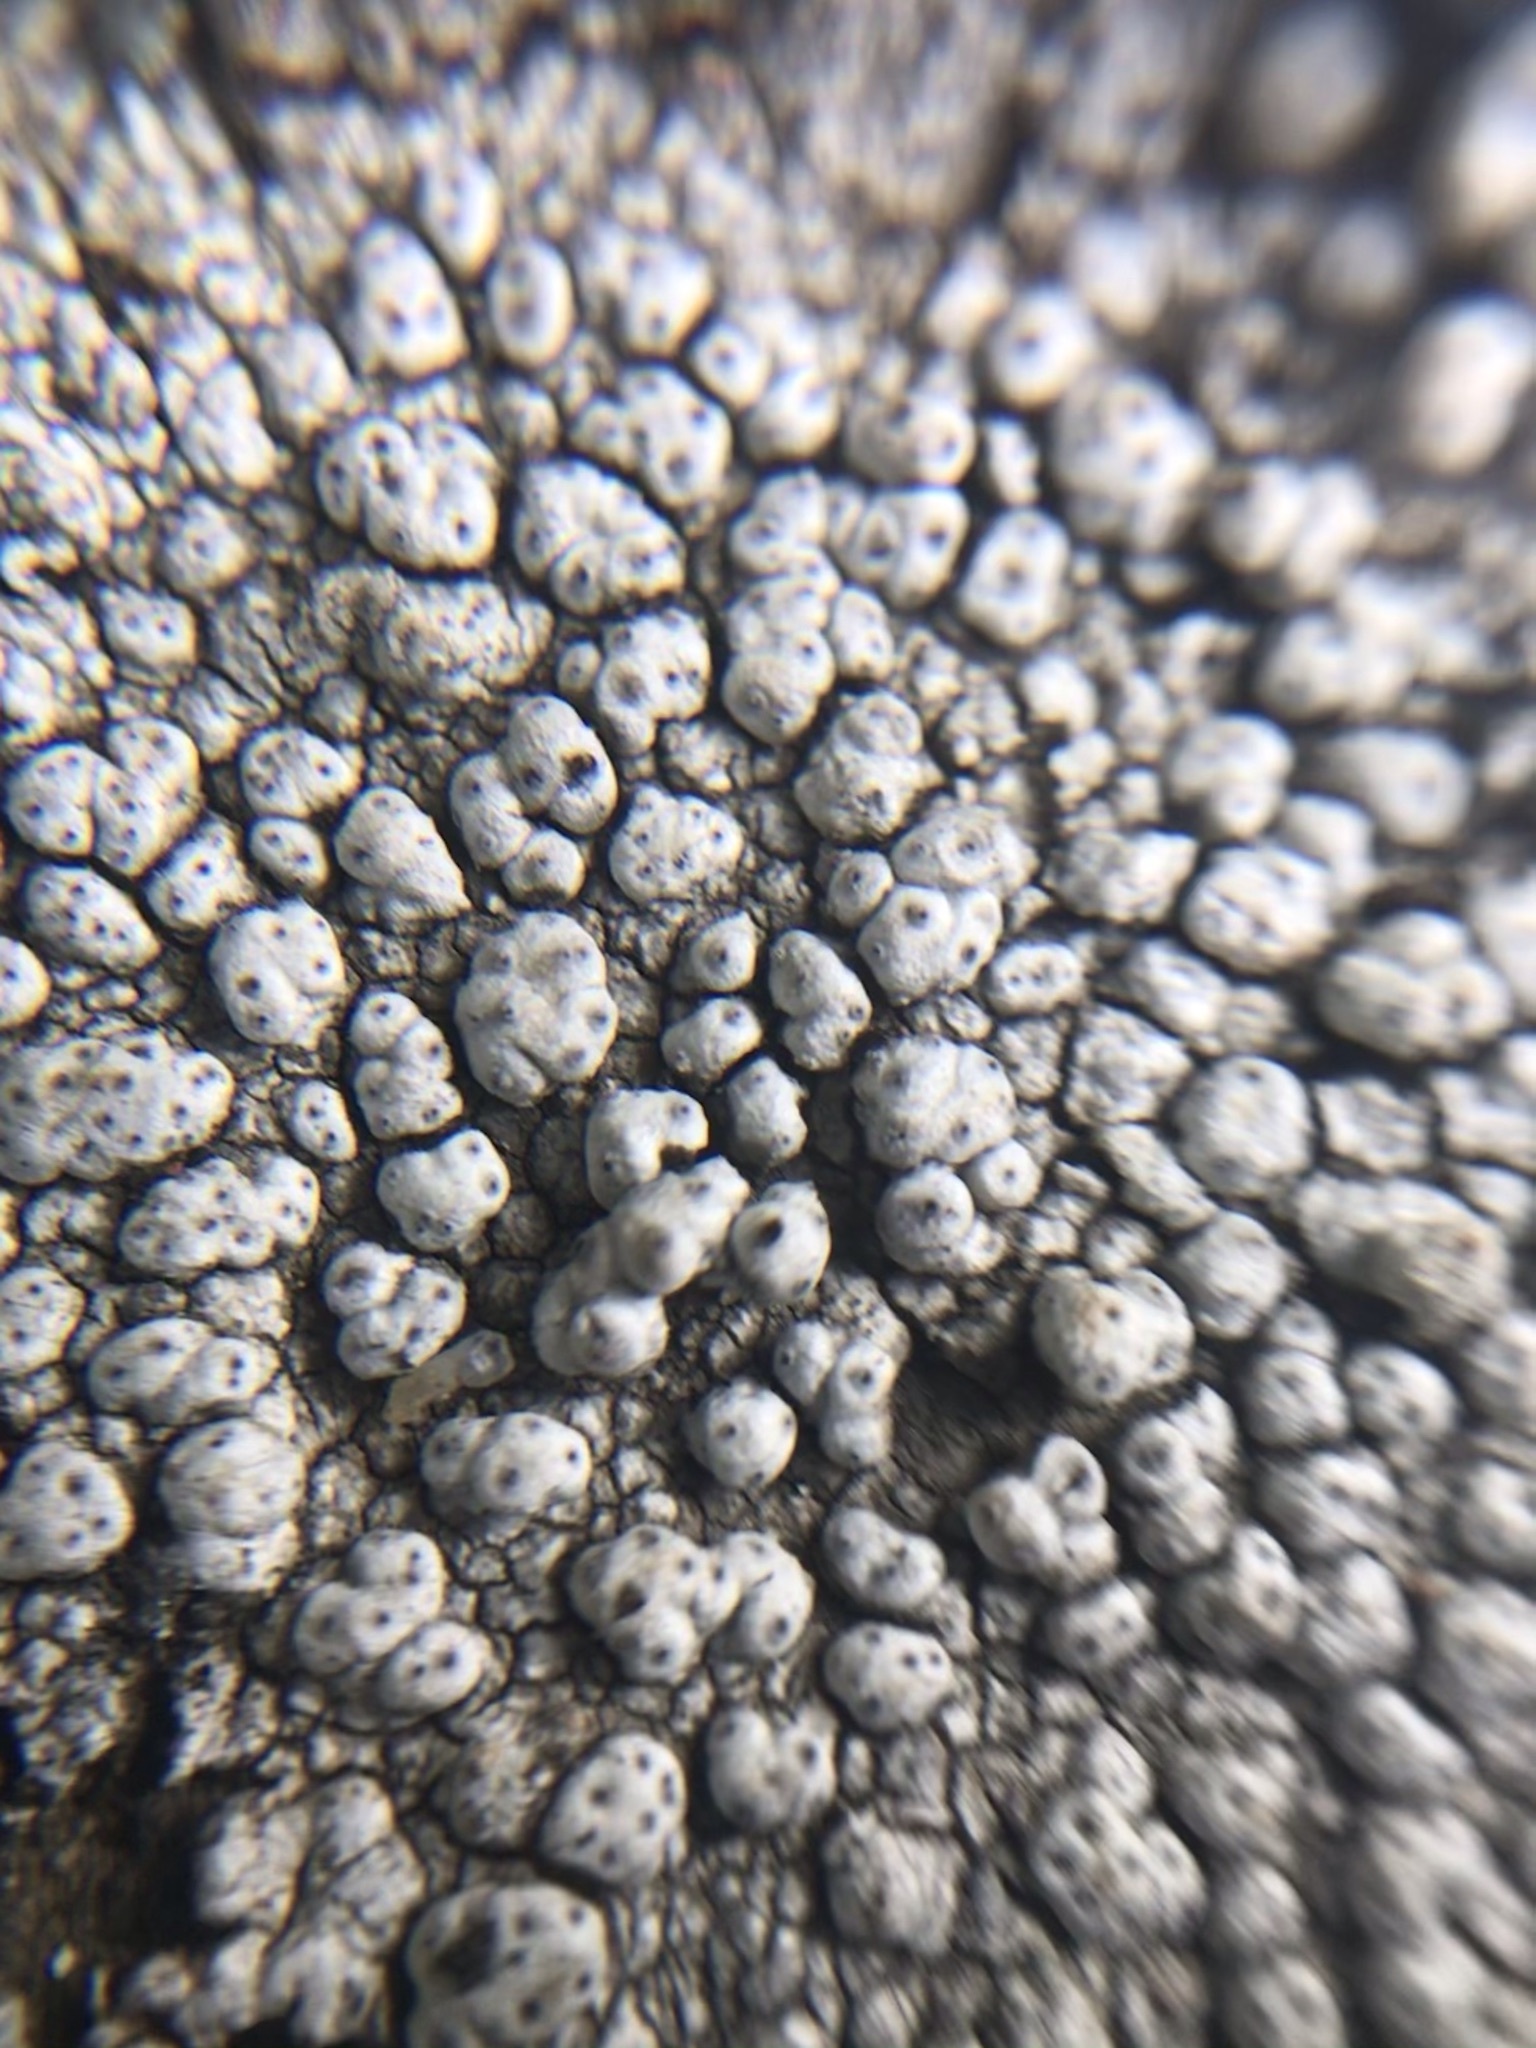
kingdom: Fungi
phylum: Ascomycota
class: Lecanoromycetes
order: Pertusariales
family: Pertusariaceae
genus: Pertusaria
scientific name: Pertusaria californica
